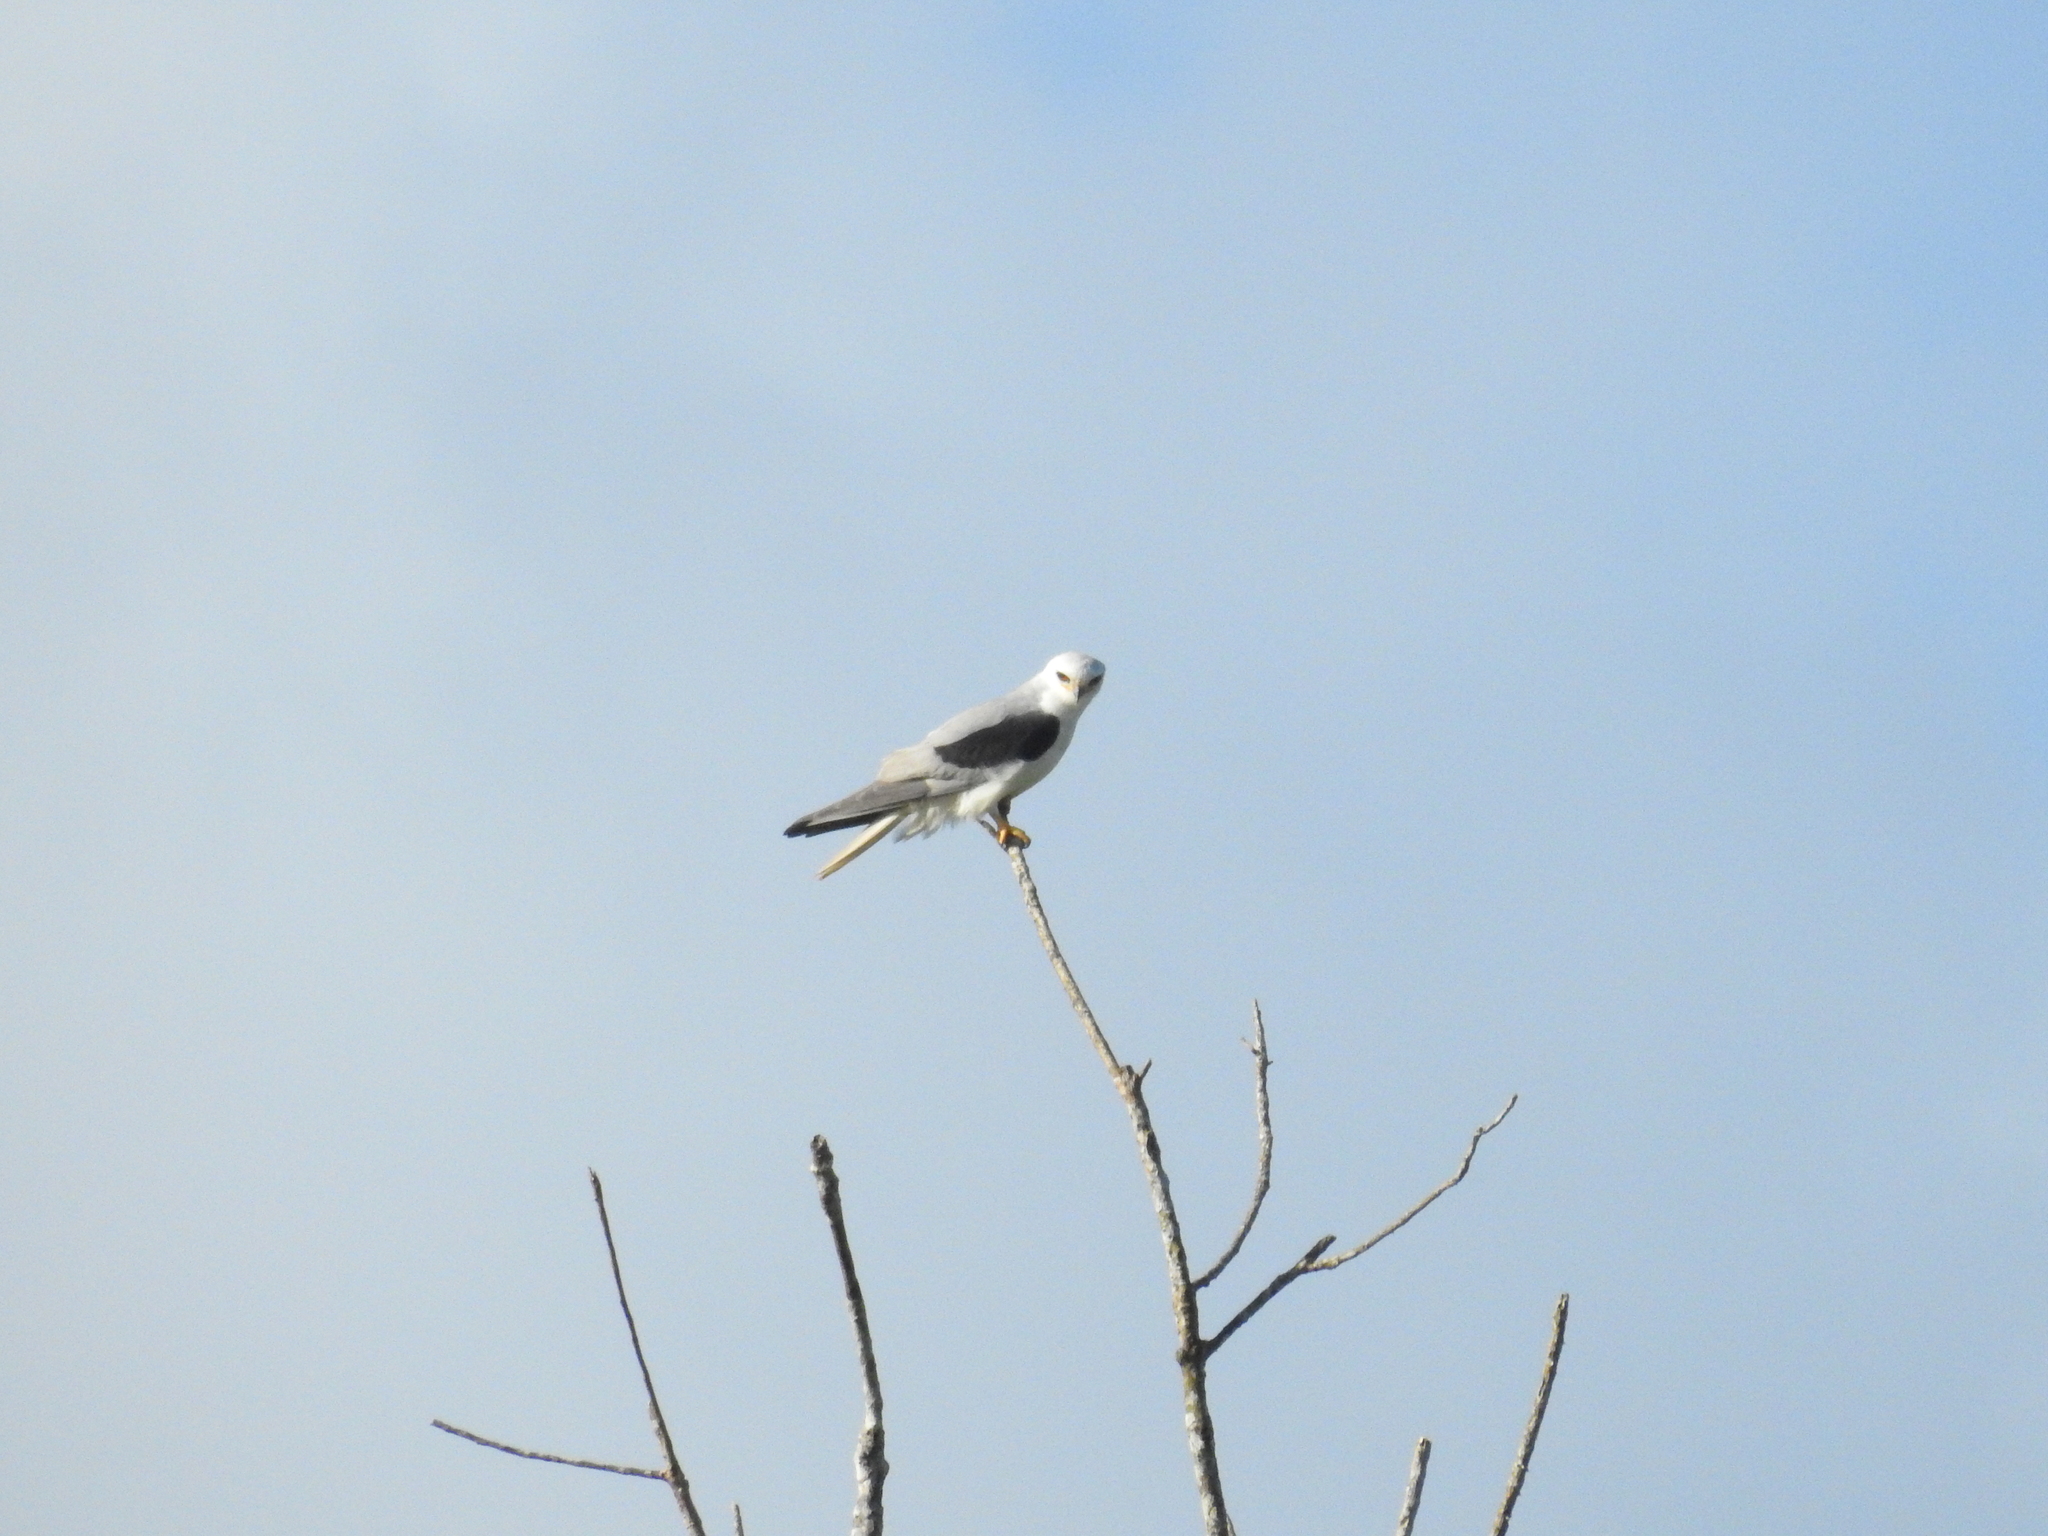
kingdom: Animalia
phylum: Chordata
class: Aves
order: Accipitriformes
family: Accipitridae
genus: Elanus
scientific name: Elanus leucurus
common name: White-tailed kite
